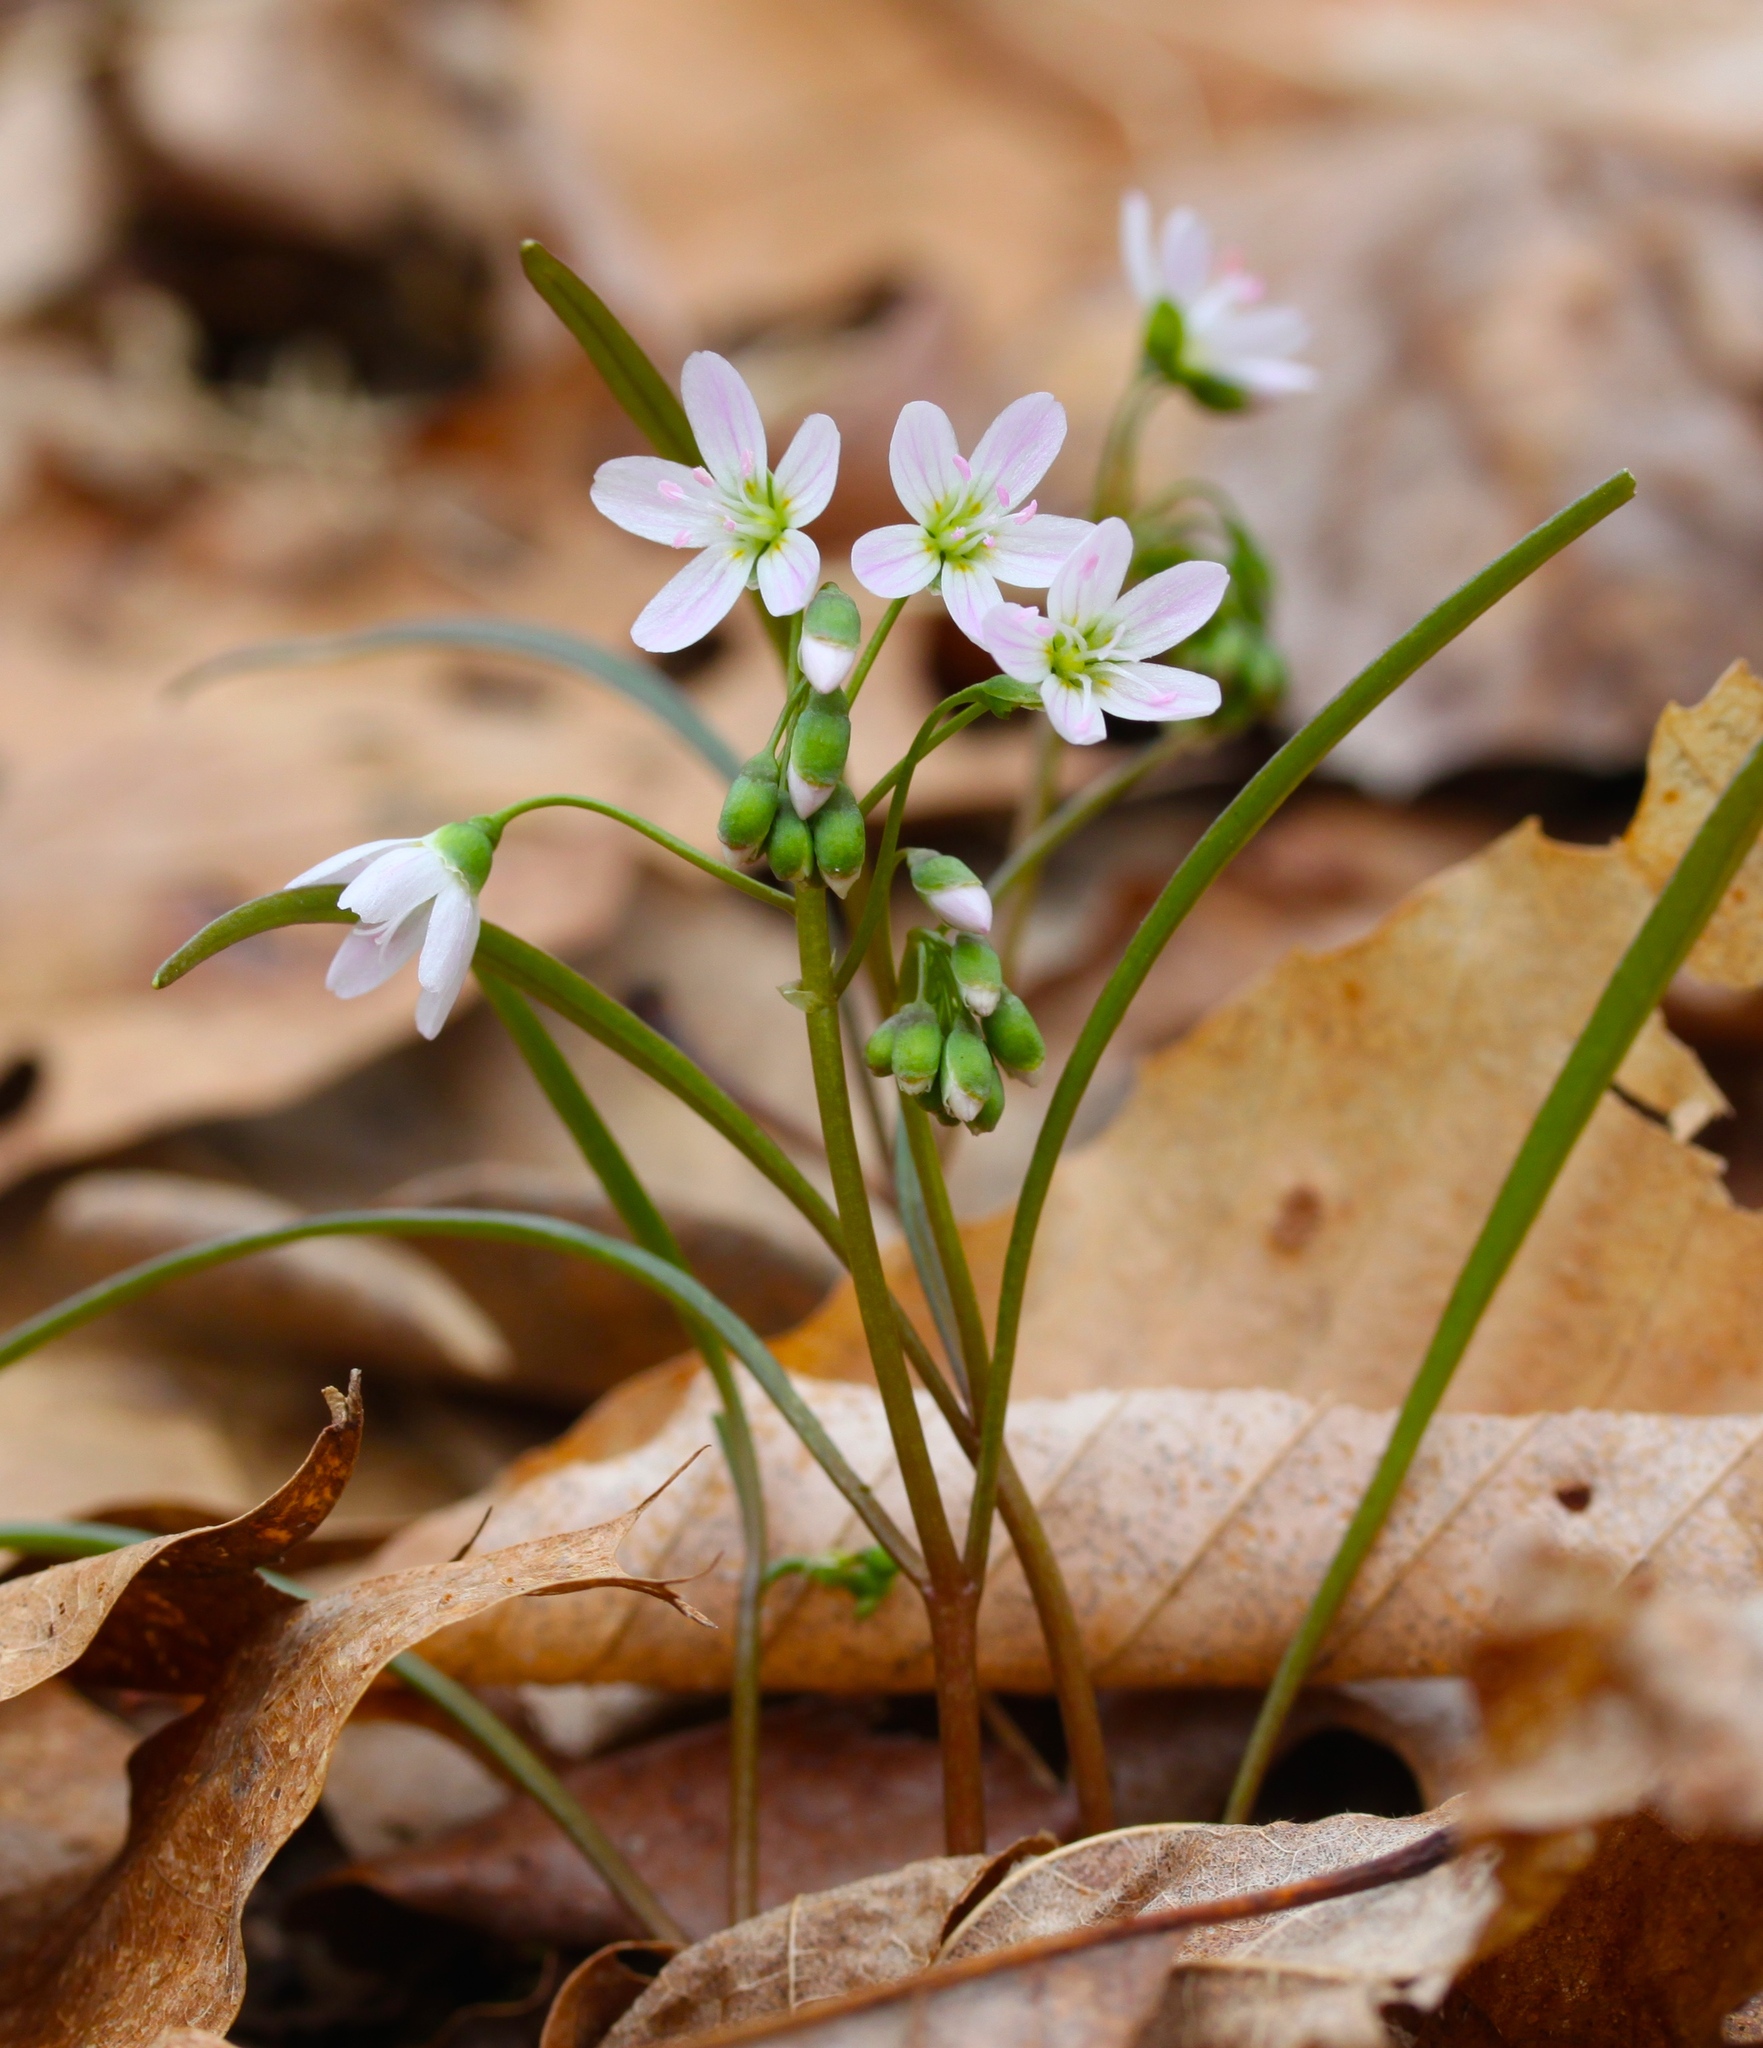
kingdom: Plantae
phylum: Tracheophyta
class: Magnoliopsida
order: Caryophyllales
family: Montiaceae
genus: Claytonia
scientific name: Claytonia virginica
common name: Virginia springbeauty
